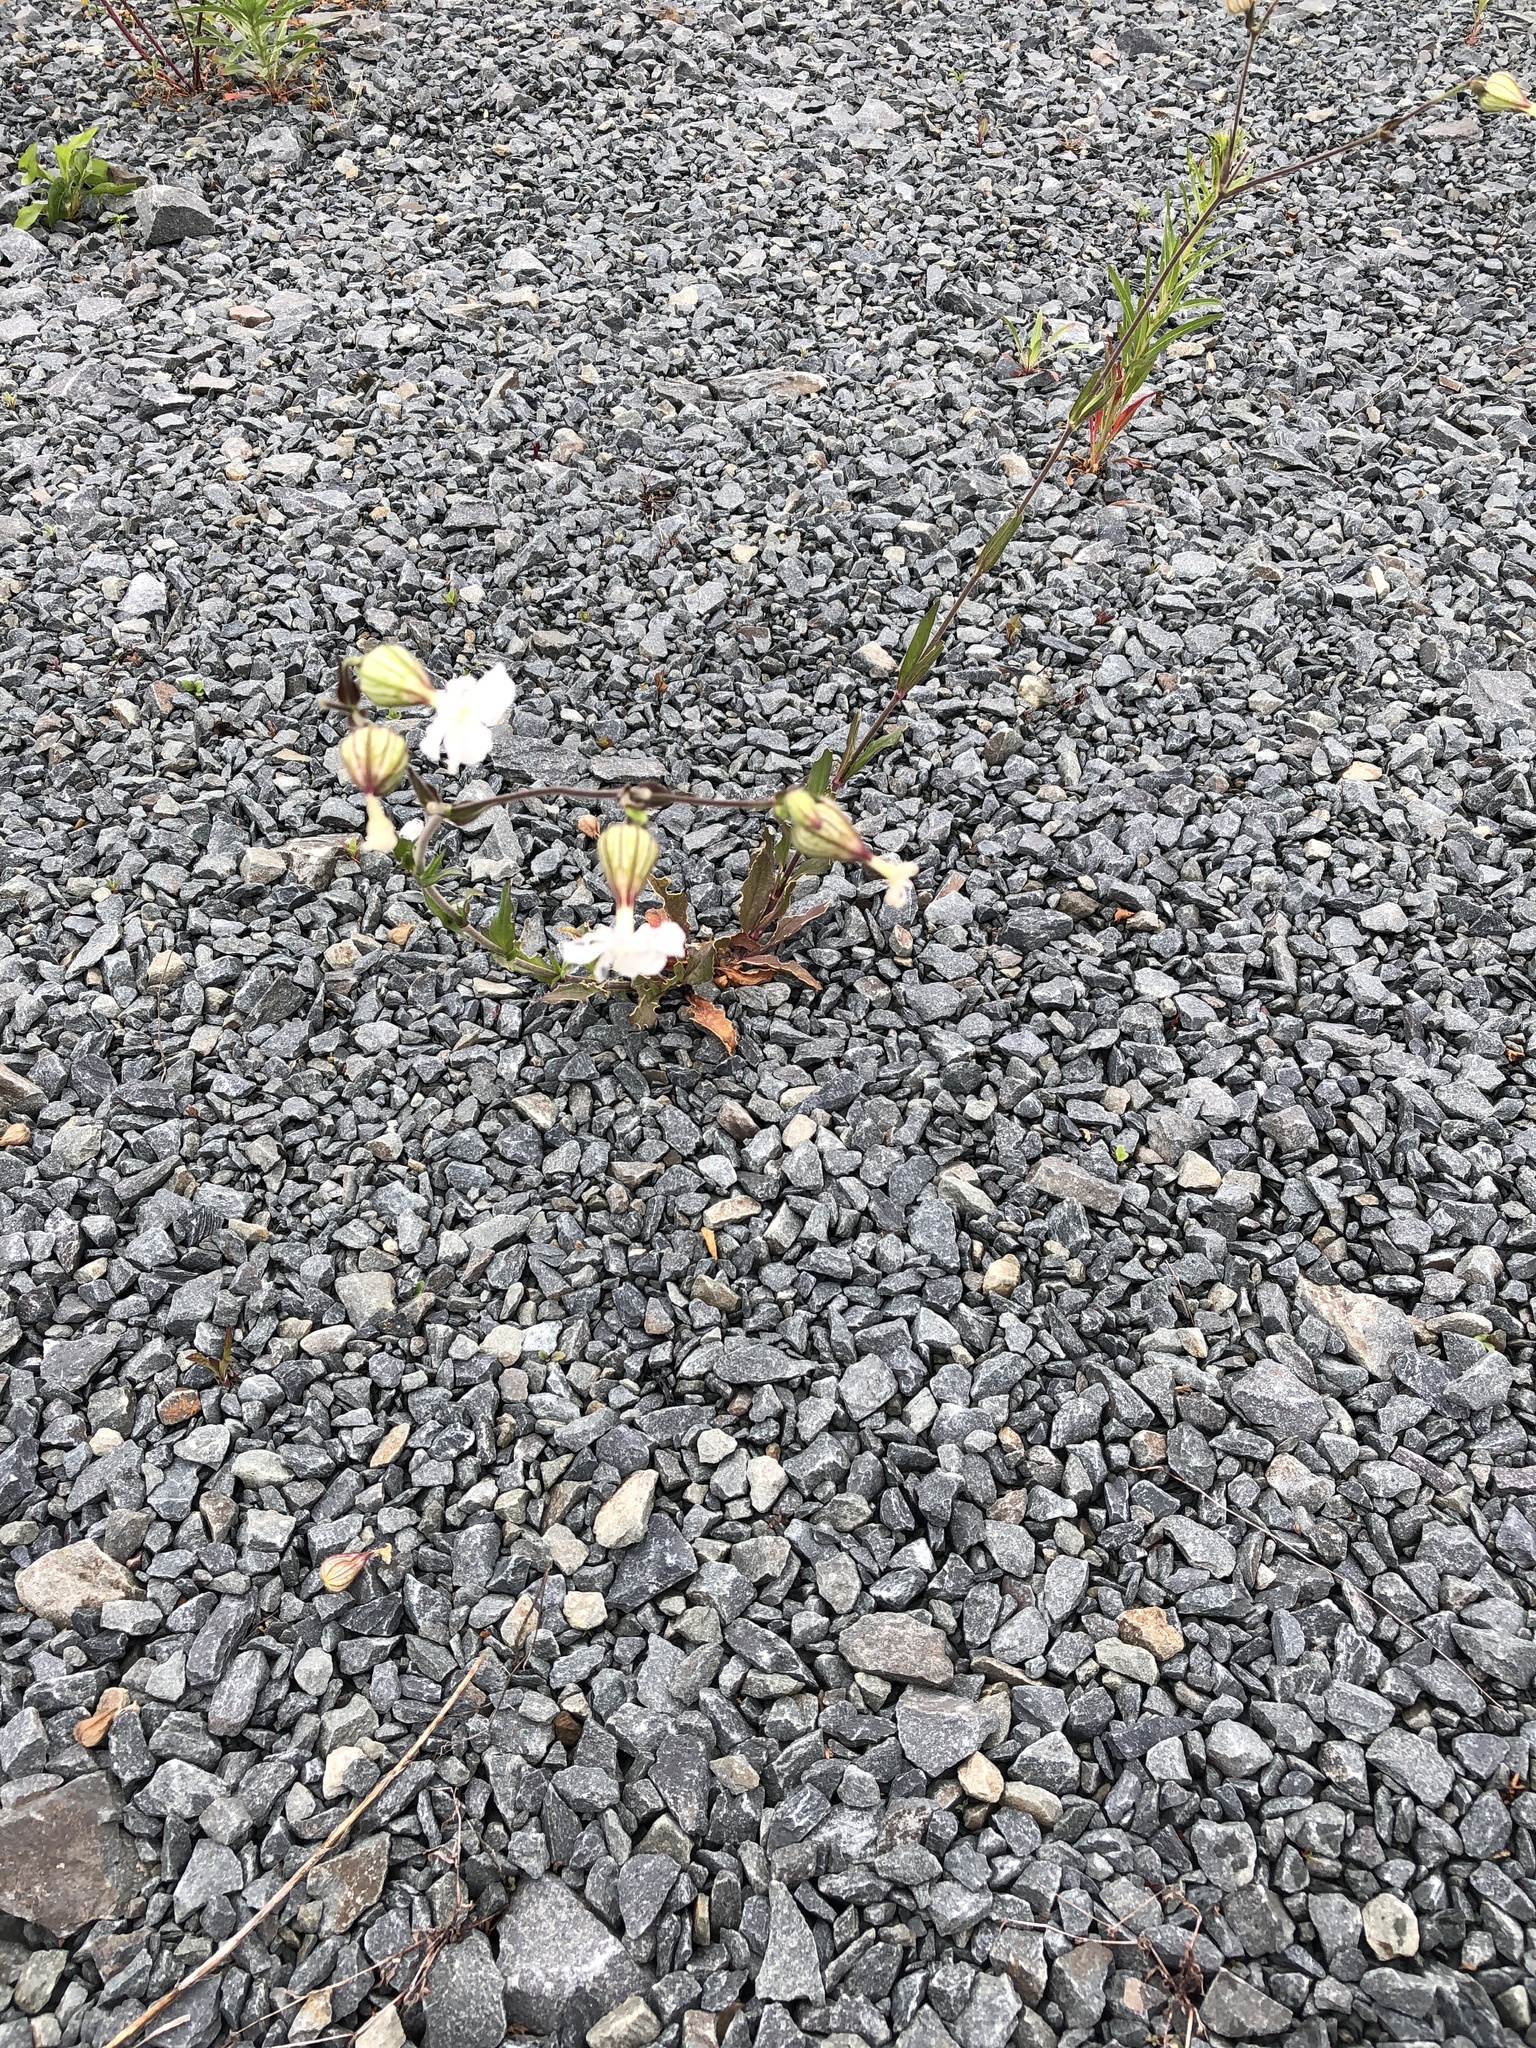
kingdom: Plantae
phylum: Tracheophyta
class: Magnoliopsida
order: Caryophyllales
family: Caryophyllaceae
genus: Silene
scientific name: Silene latifolia
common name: White campion
